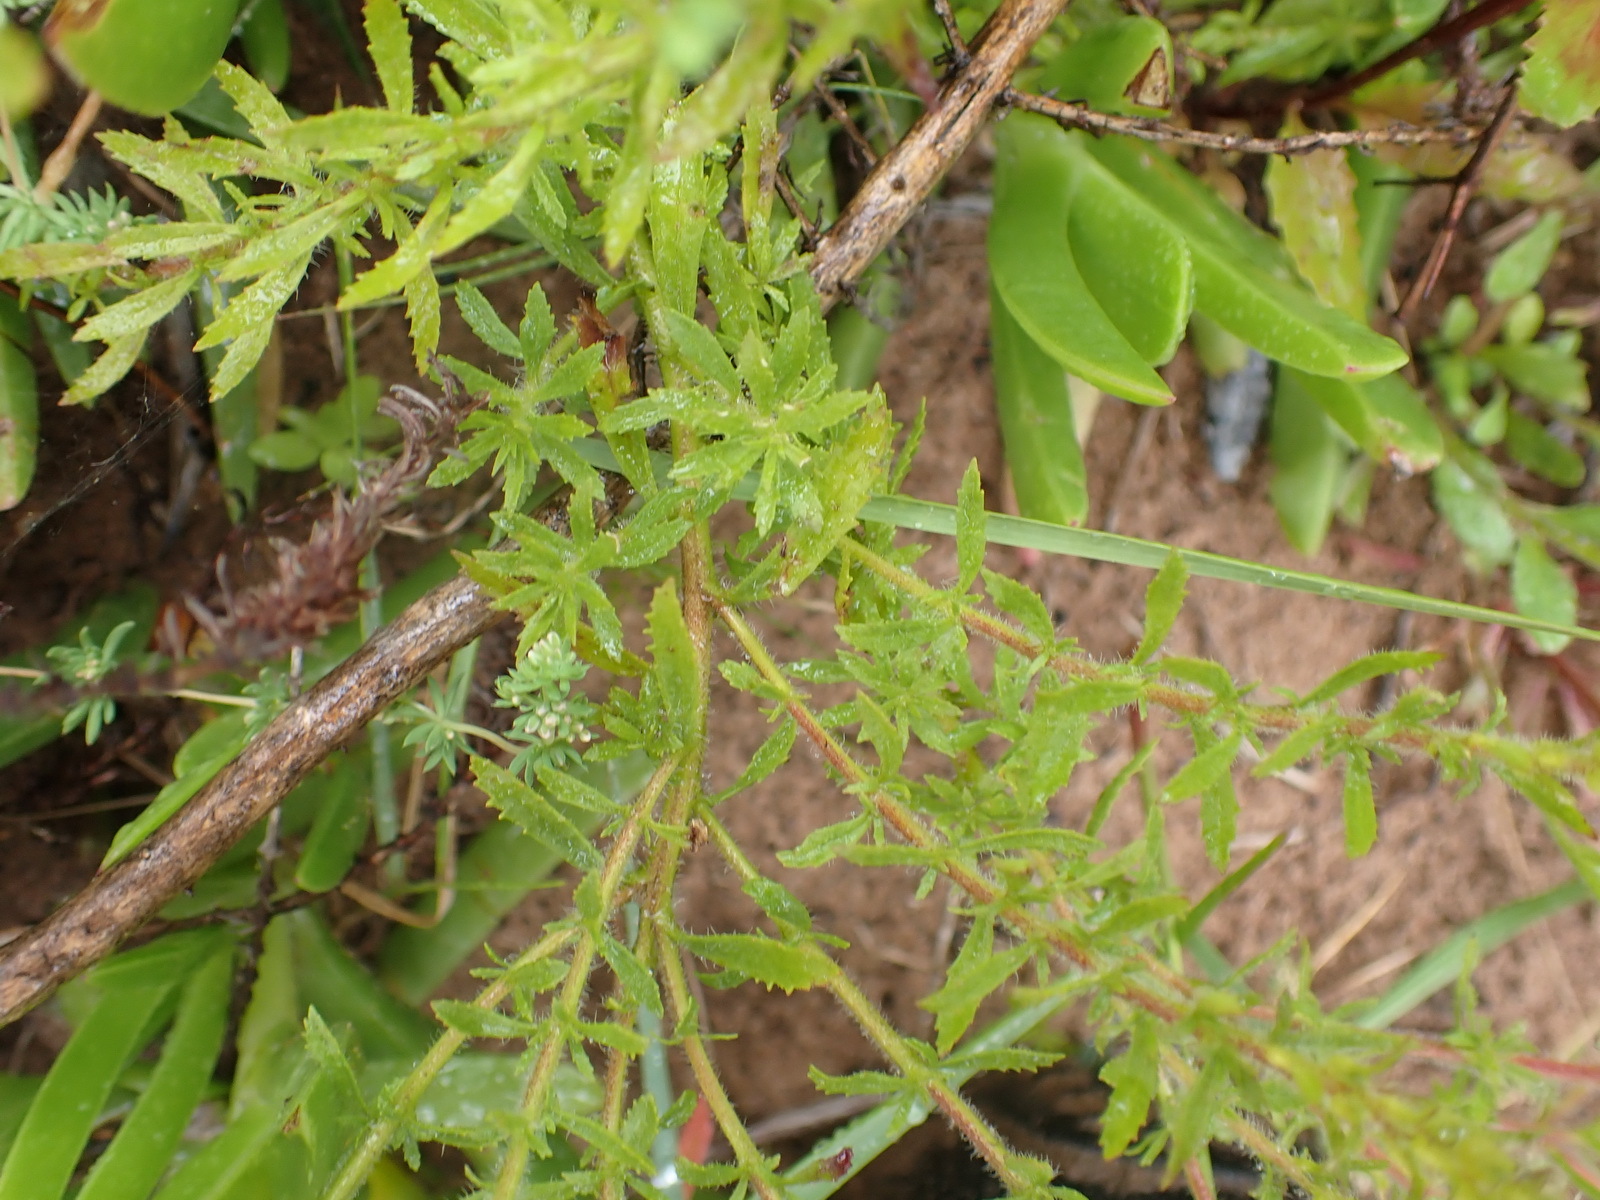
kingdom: Plantae
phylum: Tracheophyta
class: Magnoliopsida
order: Lamiales
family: Scrophulariaceae
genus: Dischisma
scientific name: Dischisma ciliatum
